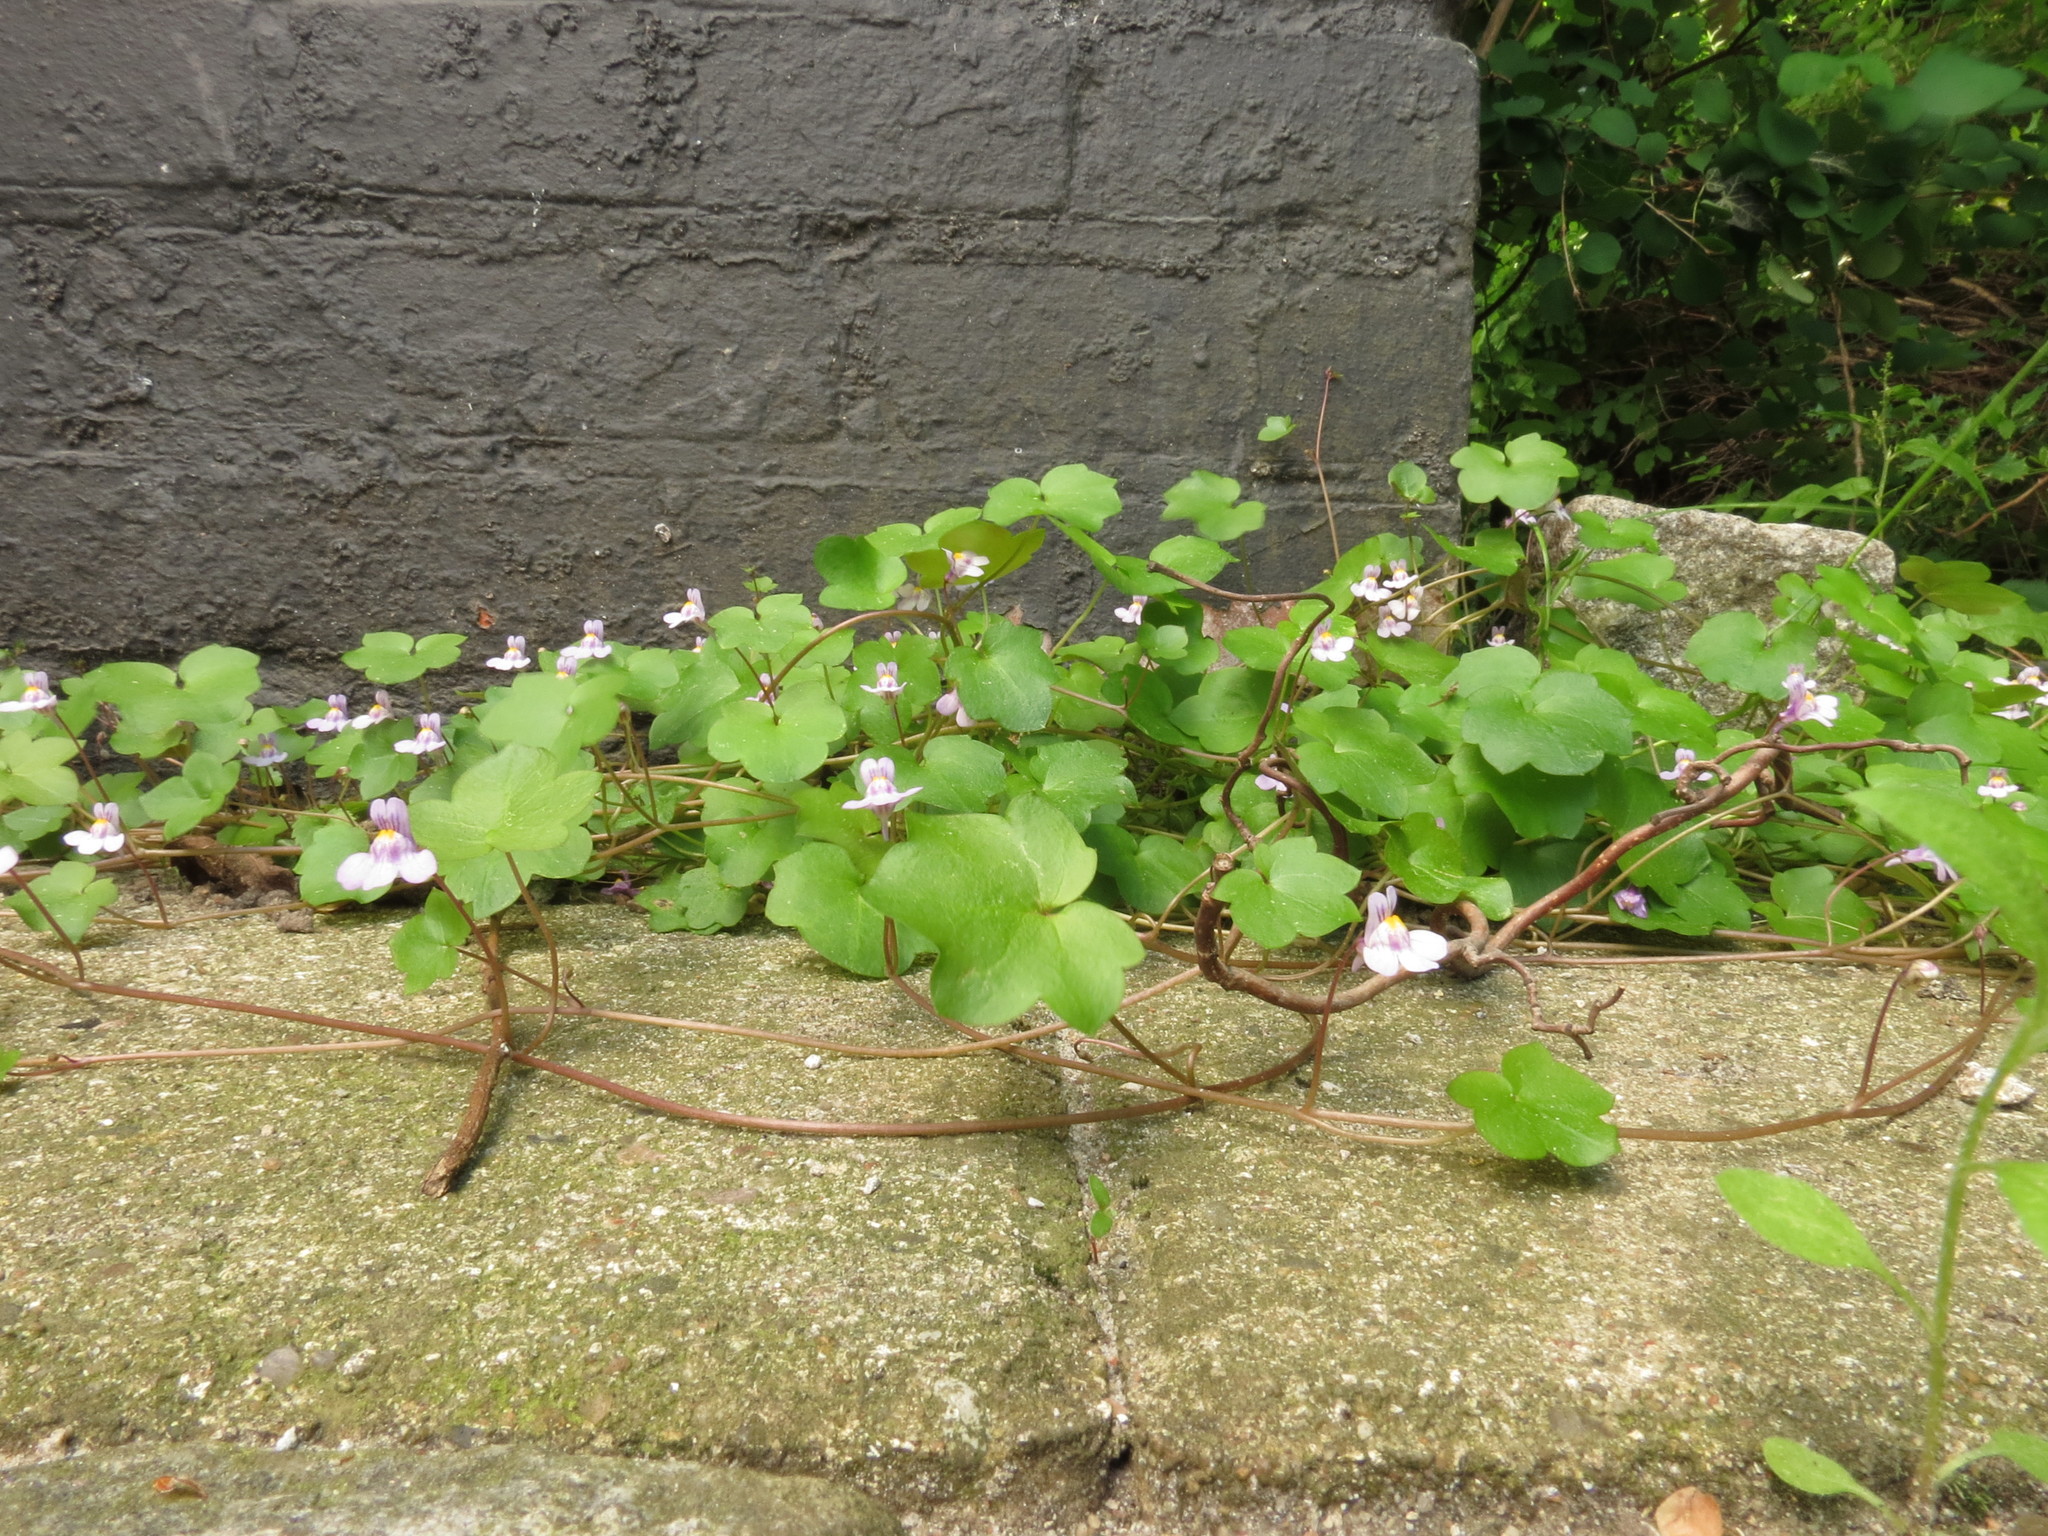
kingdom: Plantae
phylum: Tracheophyta
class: Magnoliopsida
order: Lamiales
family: Plantaginaceae
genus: Cymbalaria
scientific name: Cymbalaria muralis
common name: Ivy-leaved toadflax
